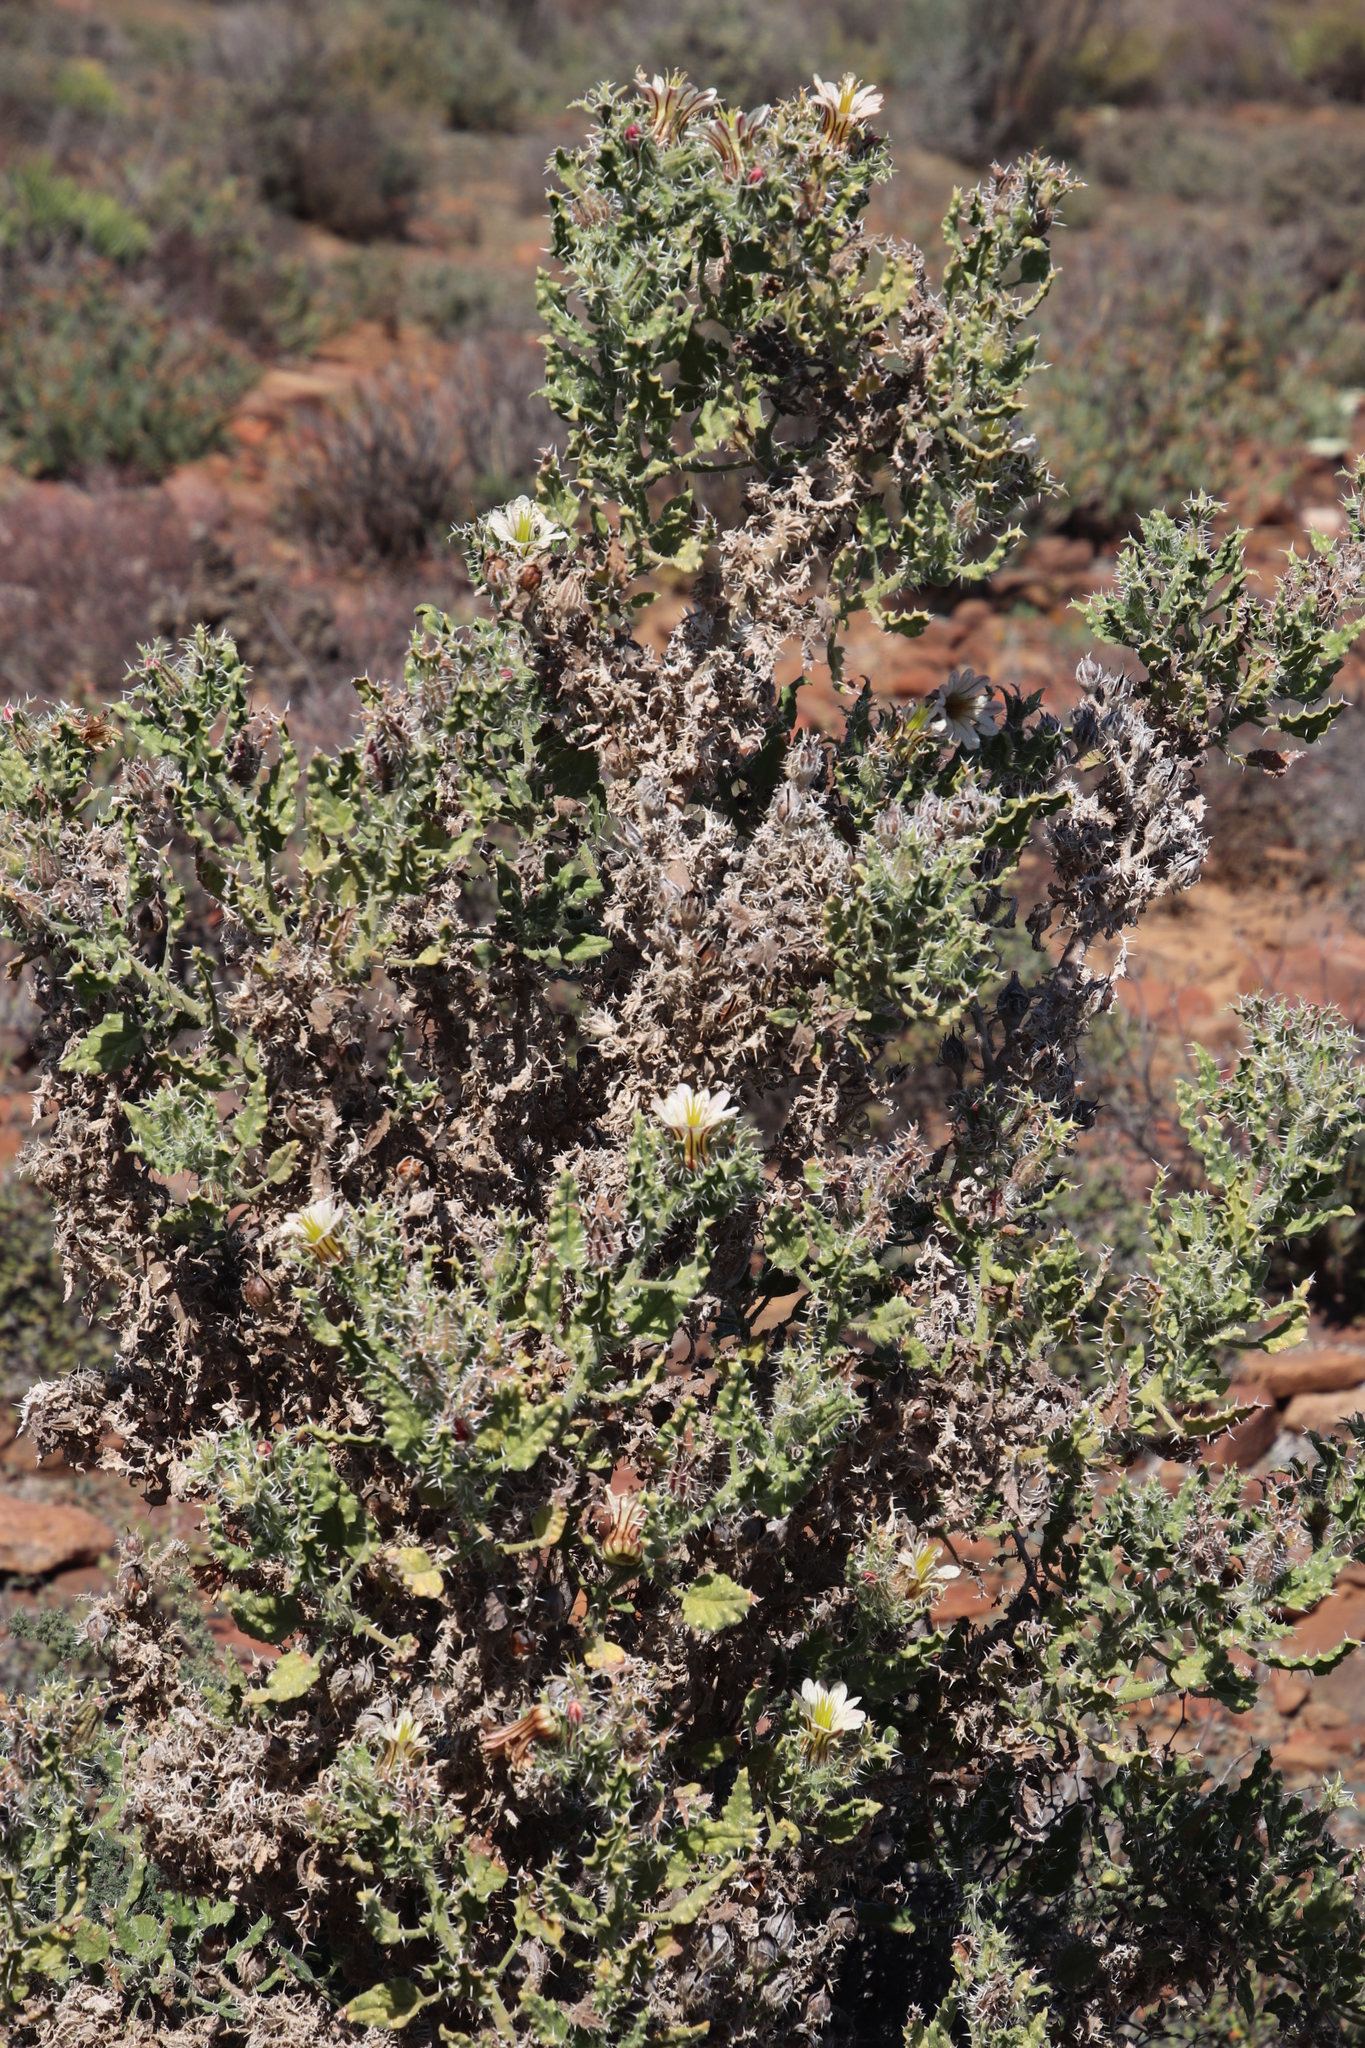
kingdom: Plantae
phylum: Tracheophyta
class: Magnoliopsida
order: Boraginales
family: Boraginaceae
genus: Codon
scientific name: Codon royenii
